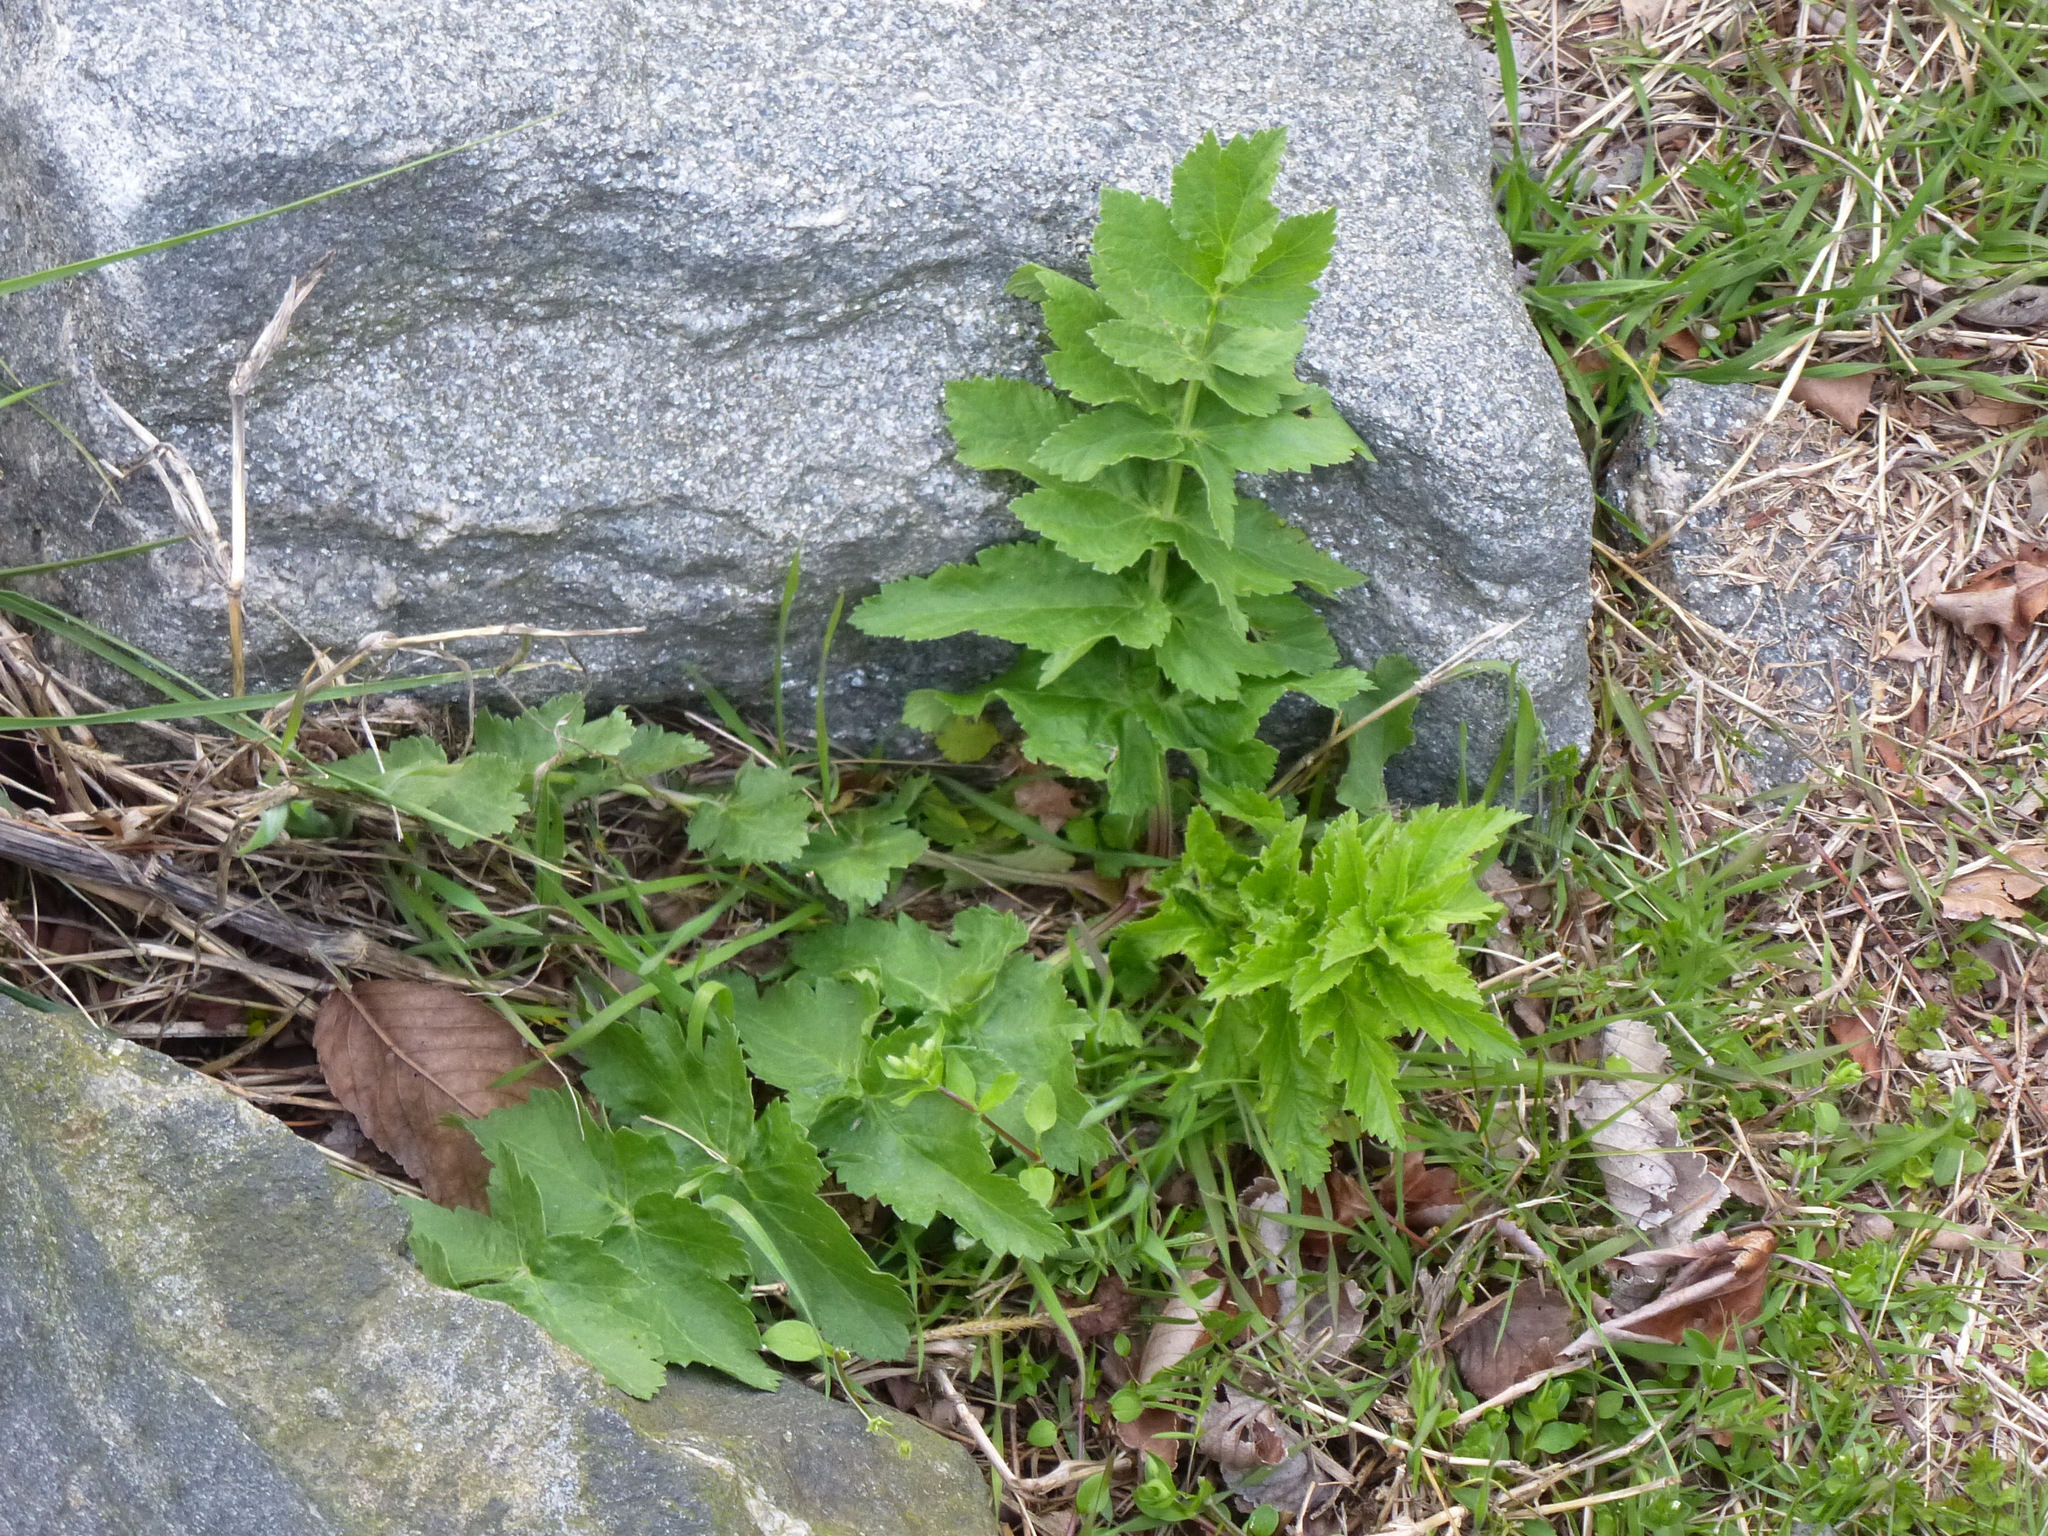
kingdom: Plantae
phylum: Tracheophyta
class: Magnoliopsida
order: Apiales
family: Apiaceae
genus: Pastinaca
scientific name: Pastinaca sativa
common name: Wild parsnip
